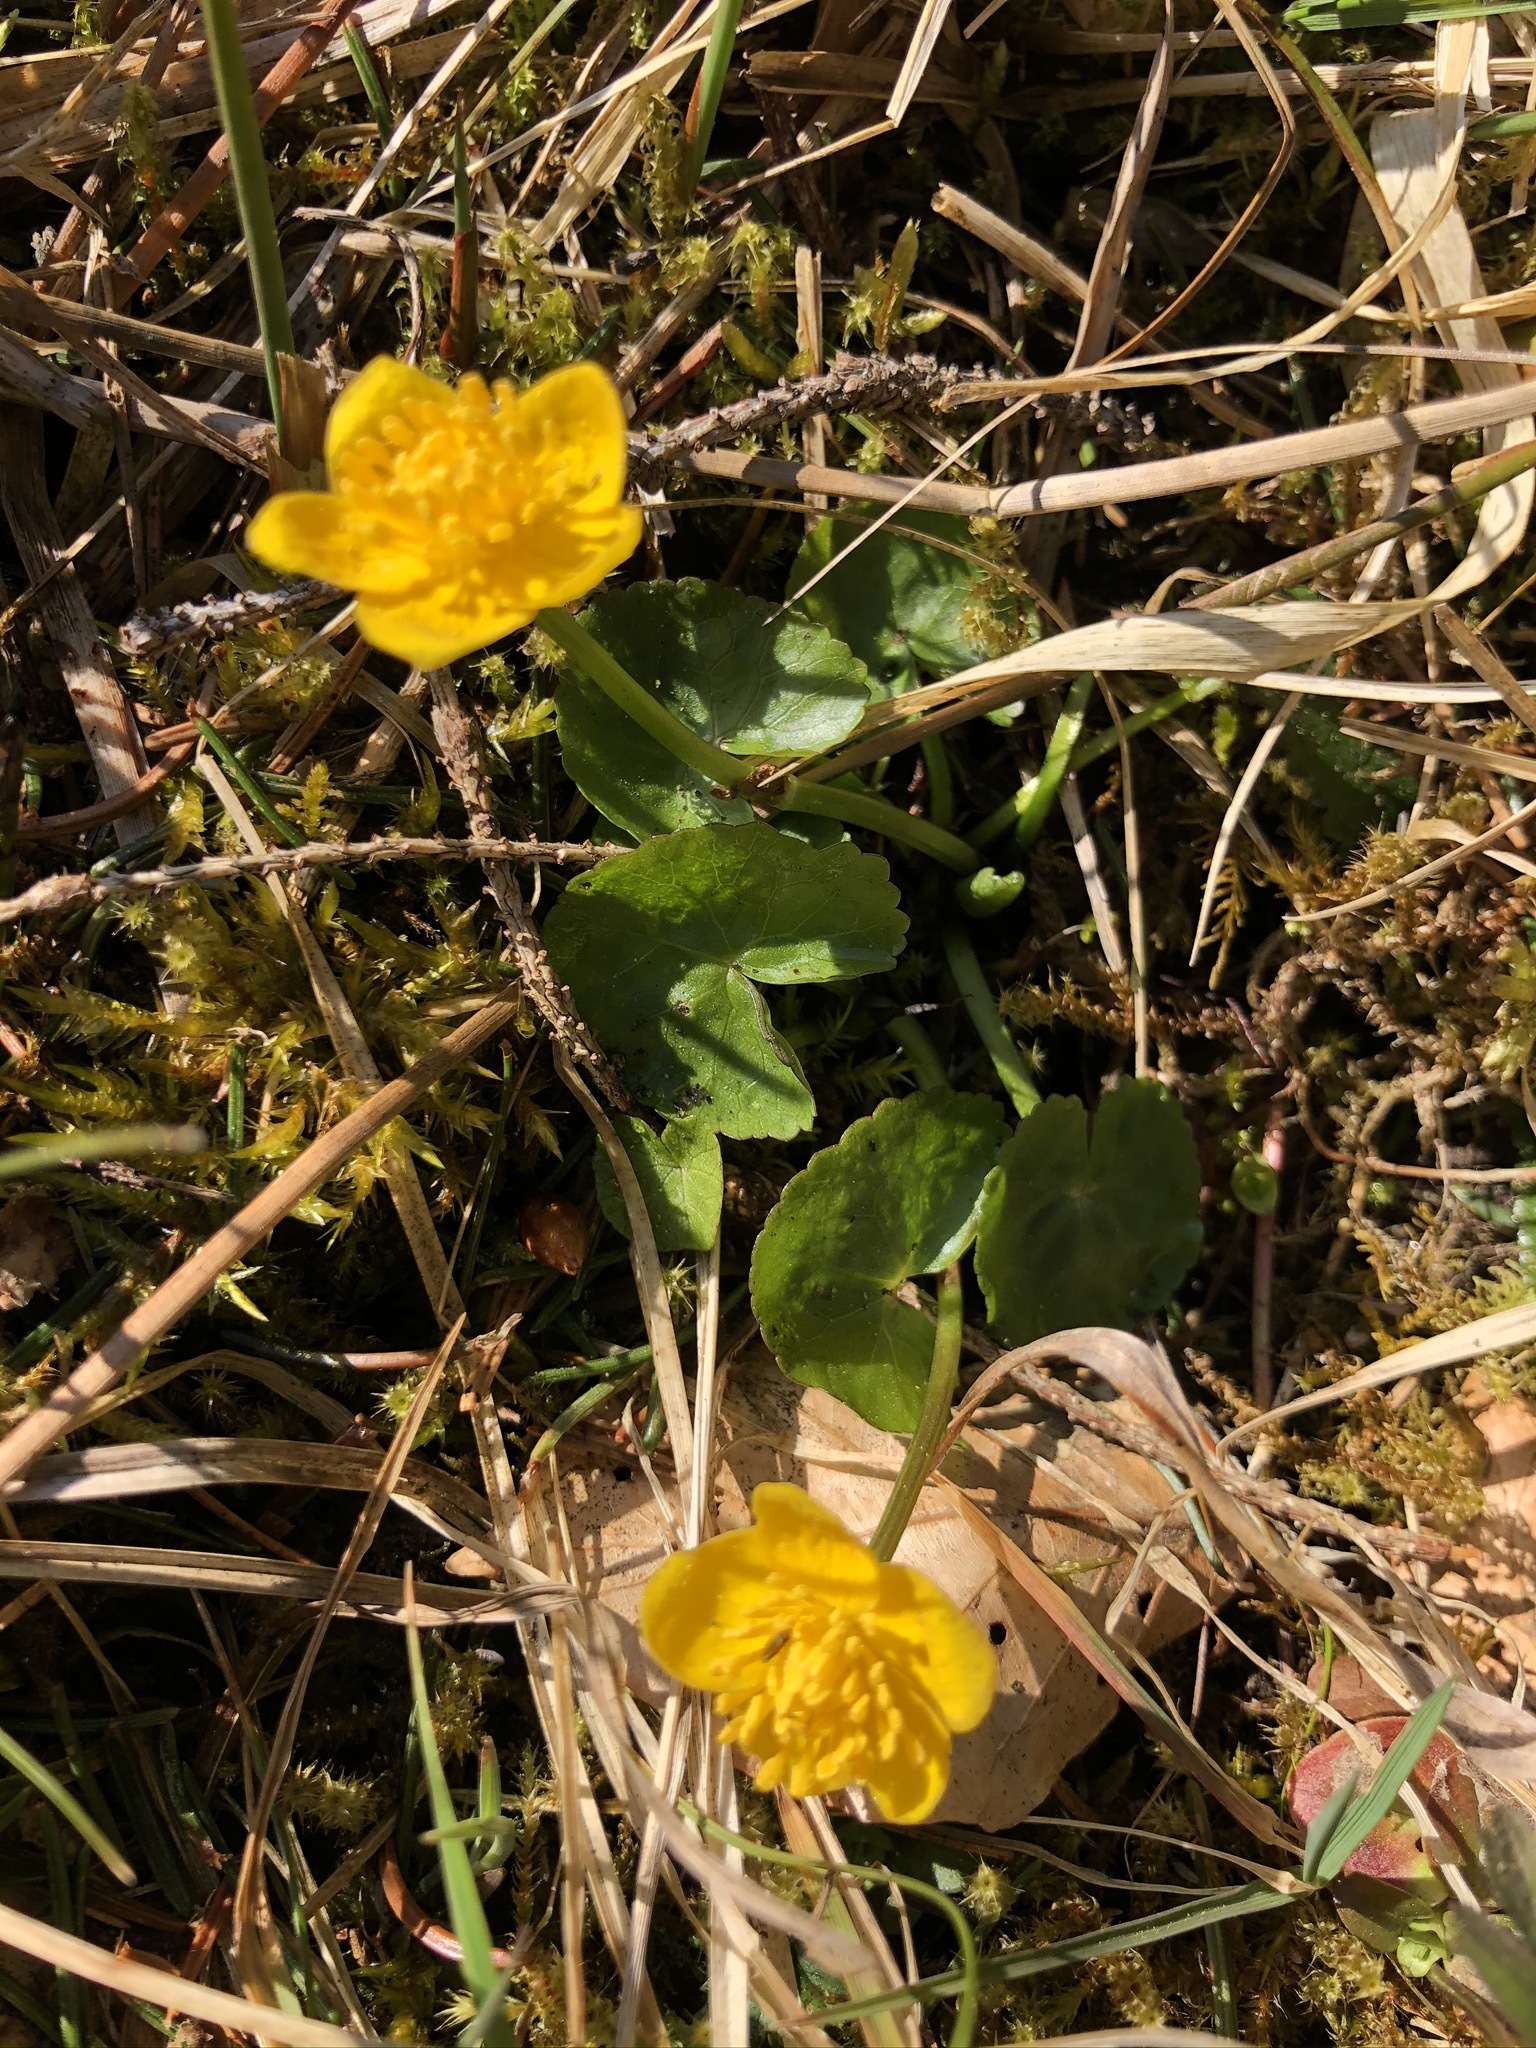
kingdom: Plantae
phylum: Tracheophyta
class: Magnoliopsida
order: Ranunculales
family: Ranunculaceae
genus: Caltha
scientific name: Caltha palustris
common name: Marsh marigold
